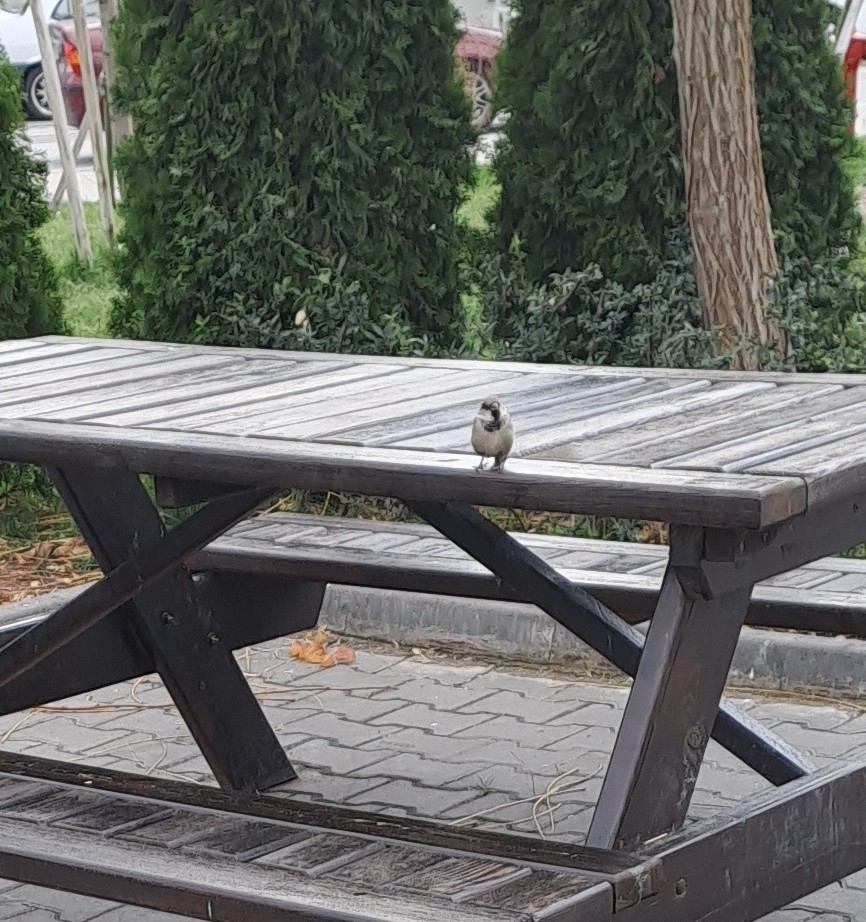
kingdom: Animalia
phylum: Chordata
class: Aves
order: Passeriformes
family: Passeridae
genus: Passer
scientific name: Passer domesticus
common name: House sparrow
